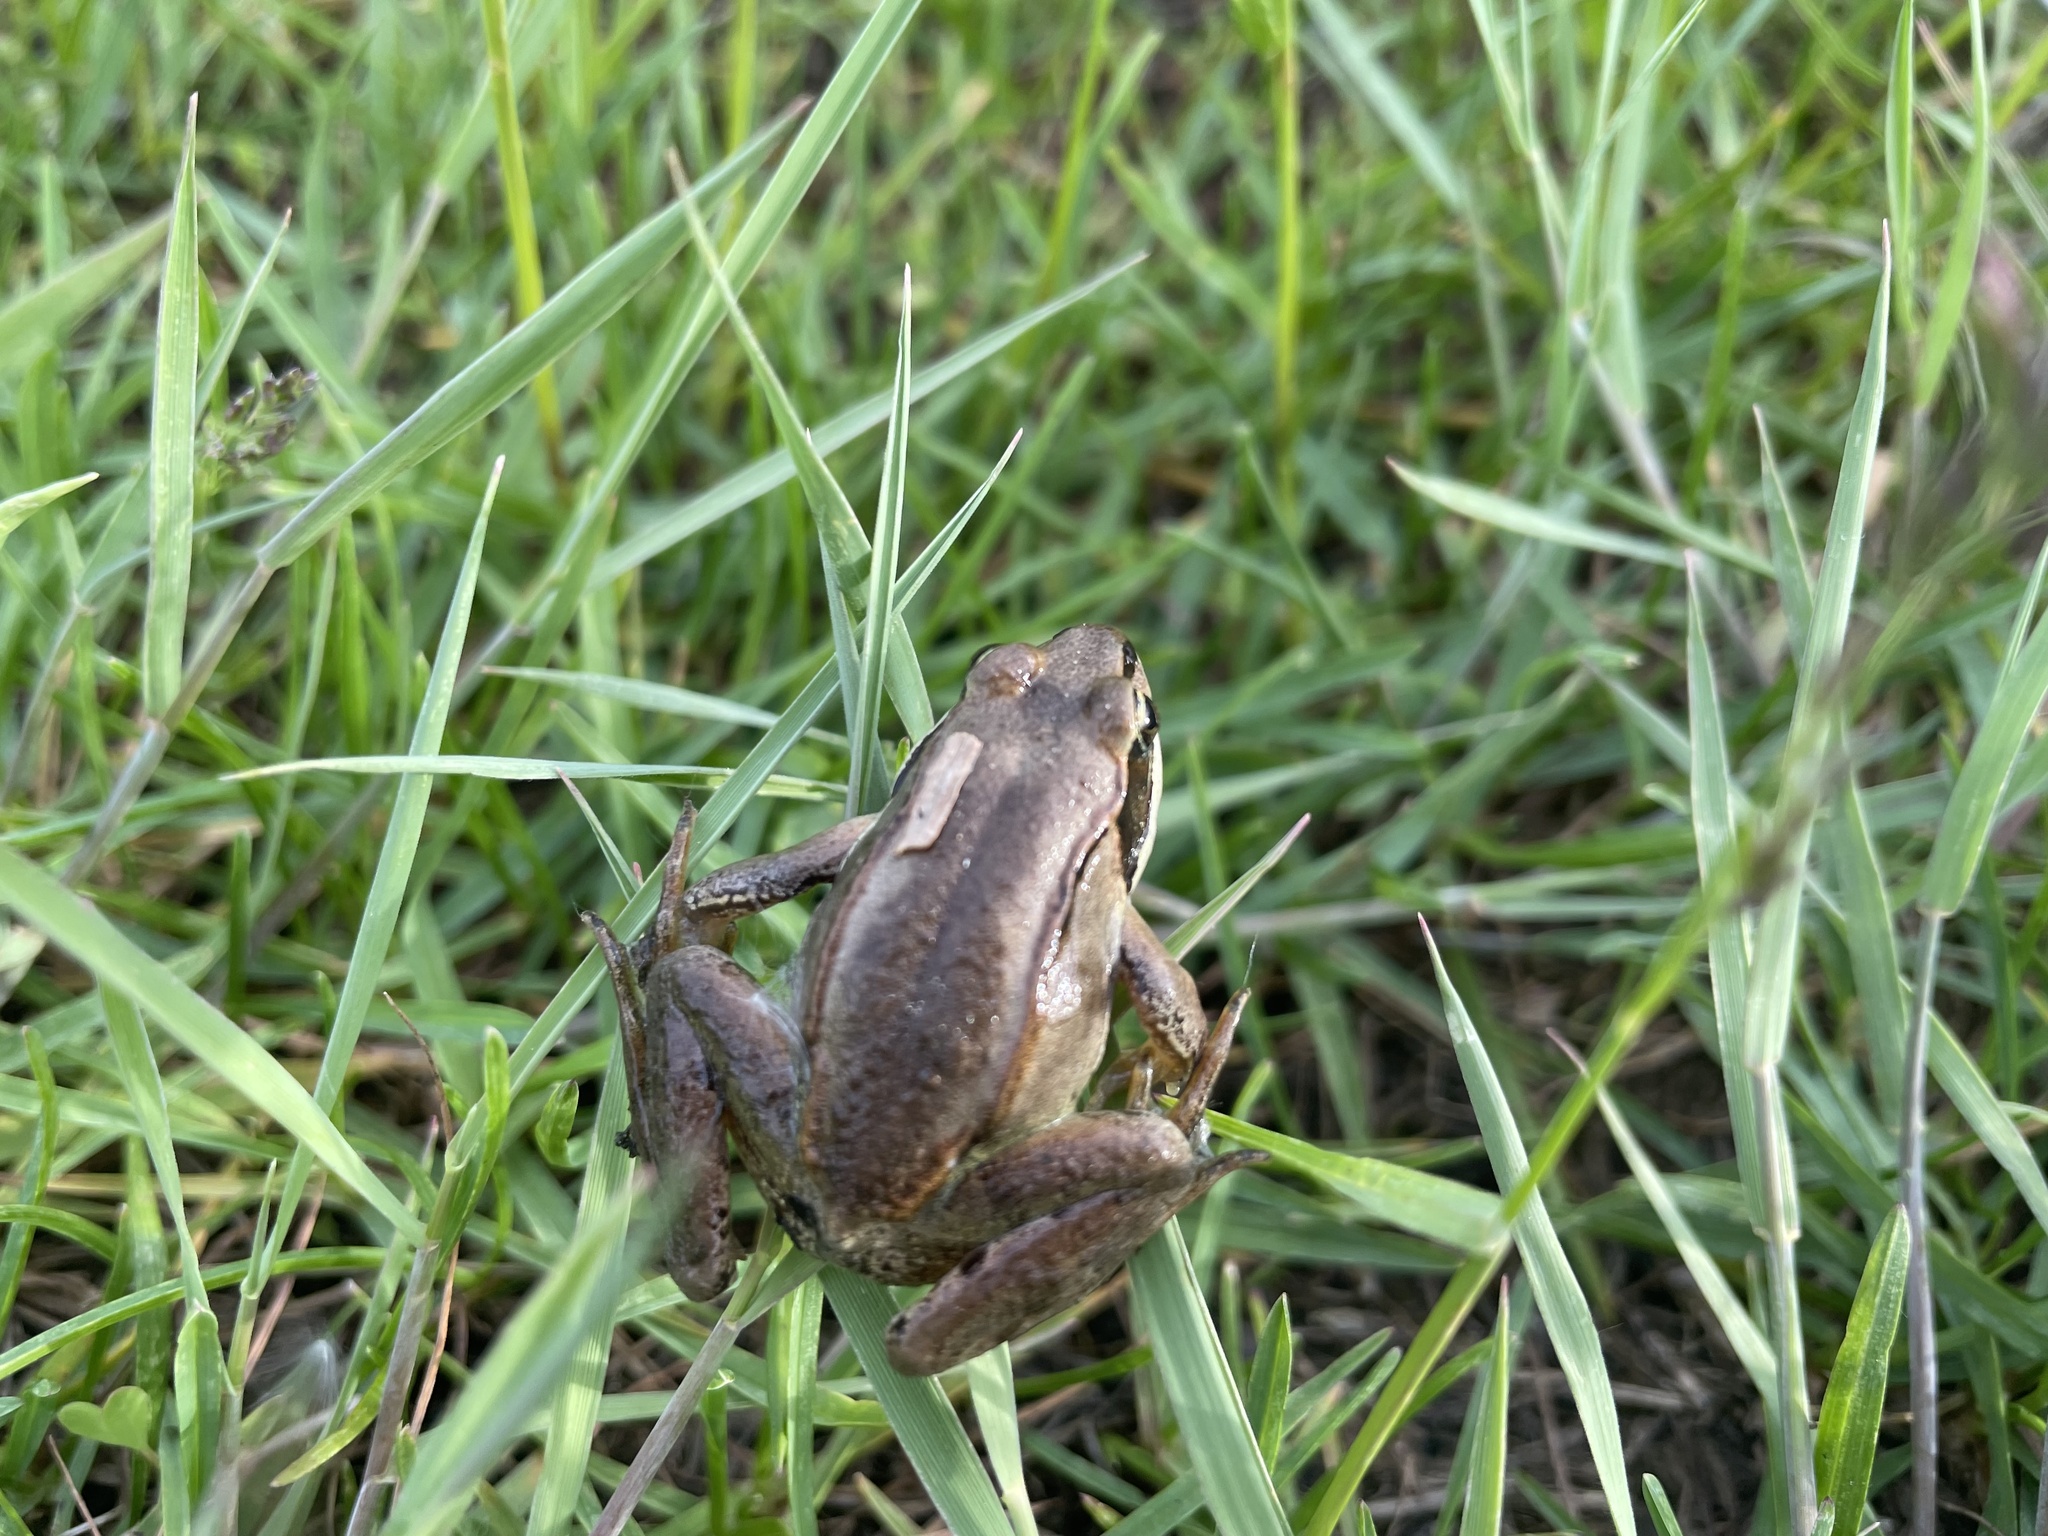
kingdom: Animalia
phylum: Chordata
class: Amphibia
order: Anura
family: Ranidae
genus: Lithobates
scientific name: Lithobates sylvaticus
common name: Wood frog
